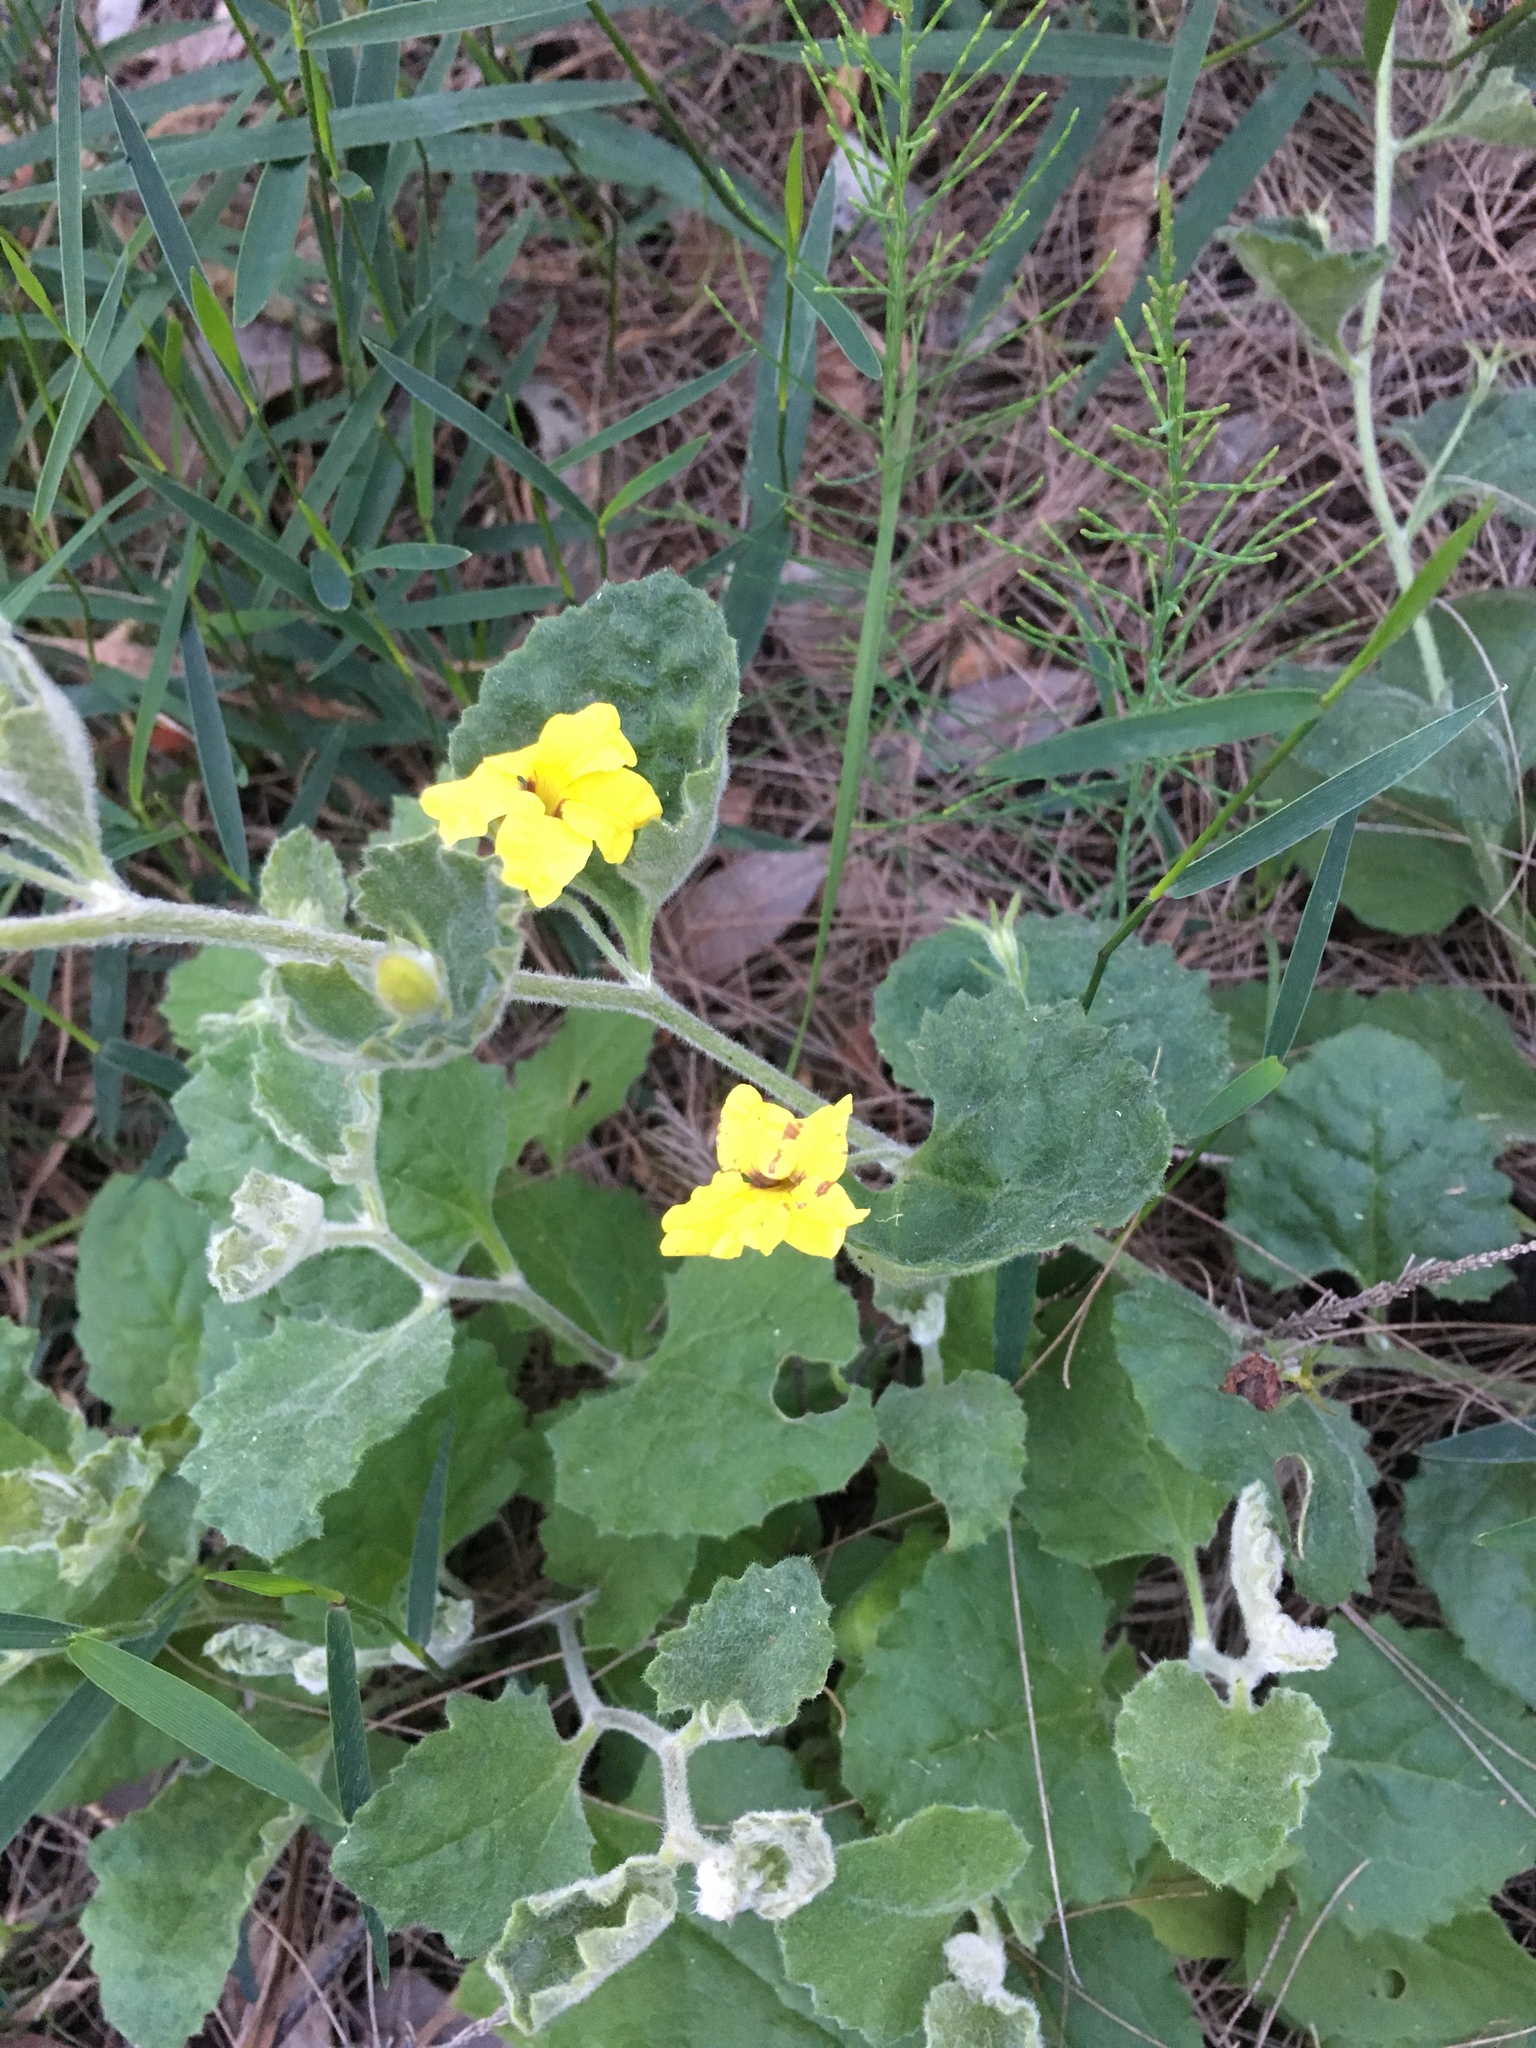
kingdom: Plantae
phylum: Tracheophyta
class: Magnoliopsida
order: Asterales
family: Goodeniaceae
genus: Goodenia
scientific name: Goodenia rotundifolia
